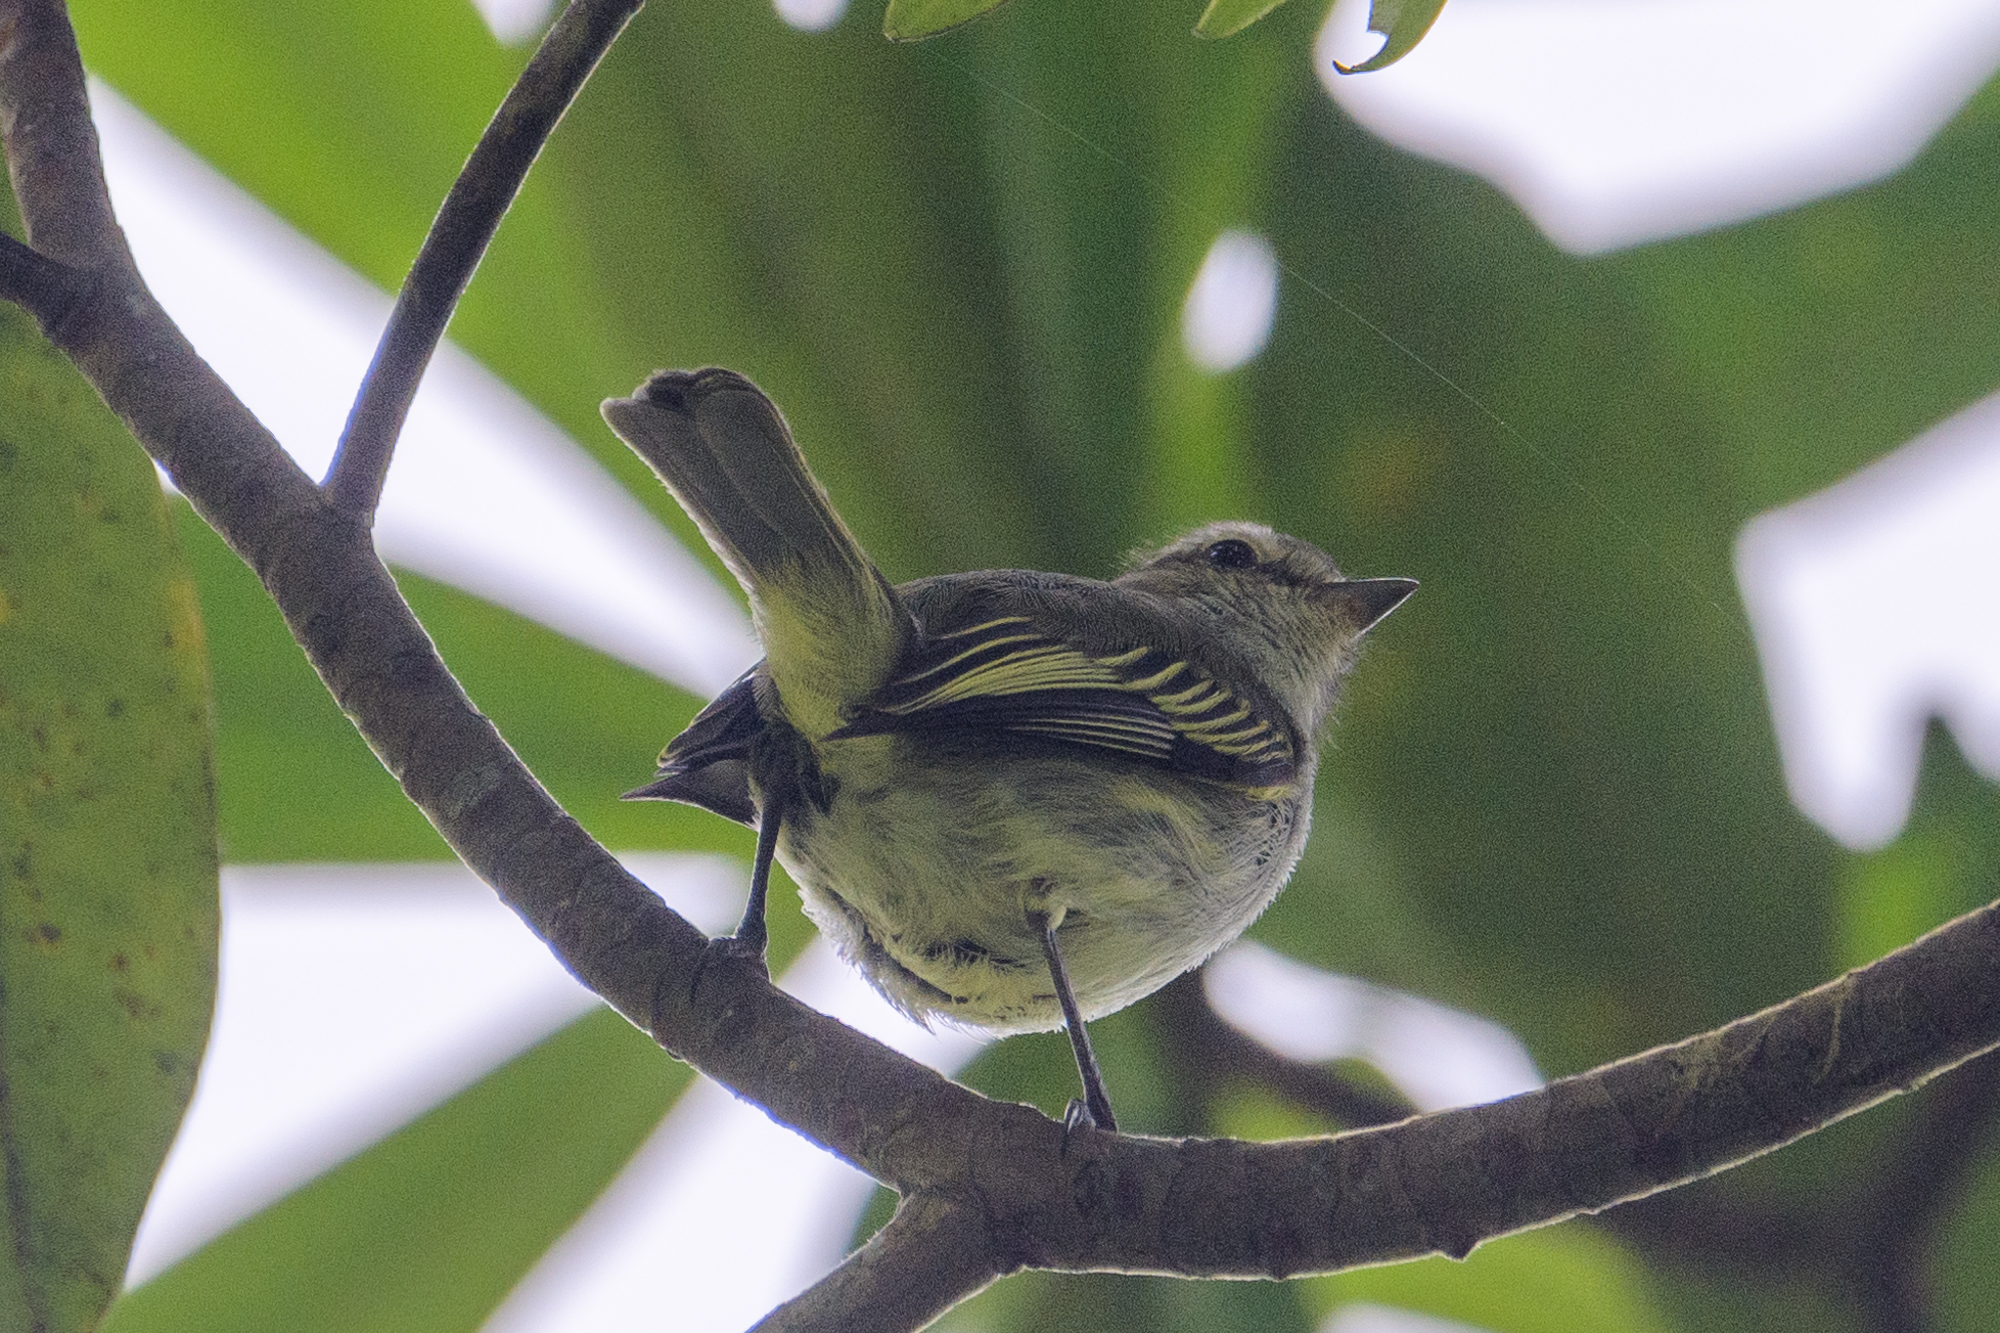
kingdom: Animalia
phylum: Chordata
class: Aves
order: Passeriformes
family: Tyrannidae
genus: Zimmerius
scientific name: Zimmerius vilissimus
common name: Paltry tyrannulet
